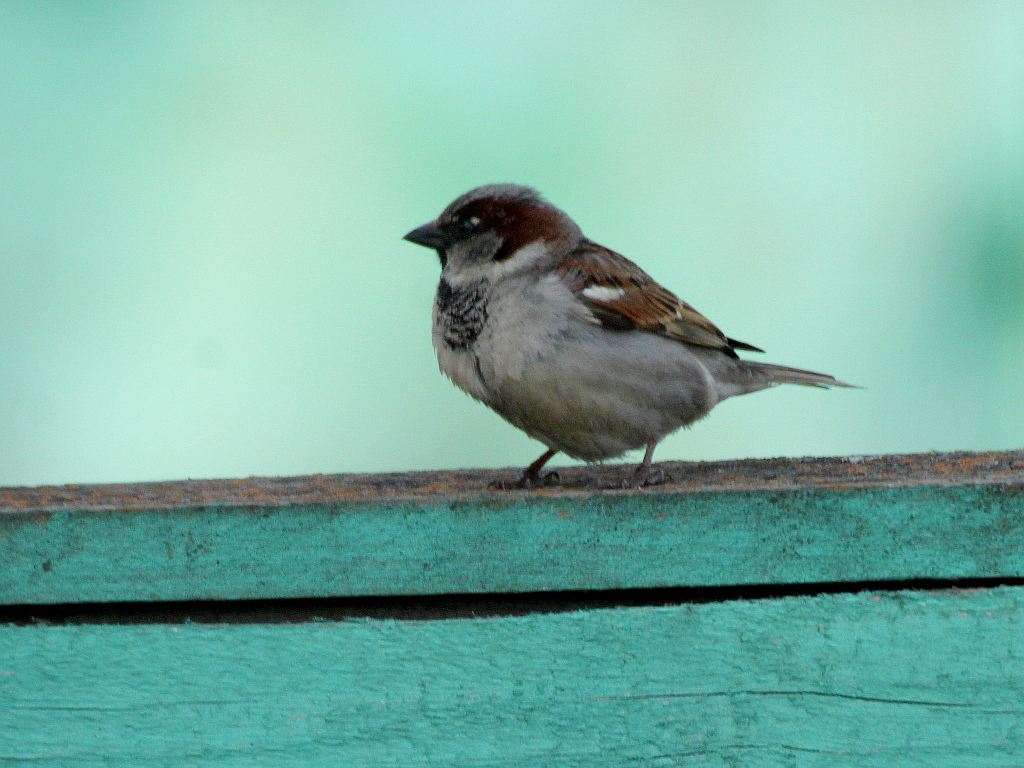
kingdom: Animalia
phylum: Chordata
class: Aves
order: Passeriformes
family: Passeridae
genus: Passer
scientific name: Passer domesticus
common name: House sparrow
